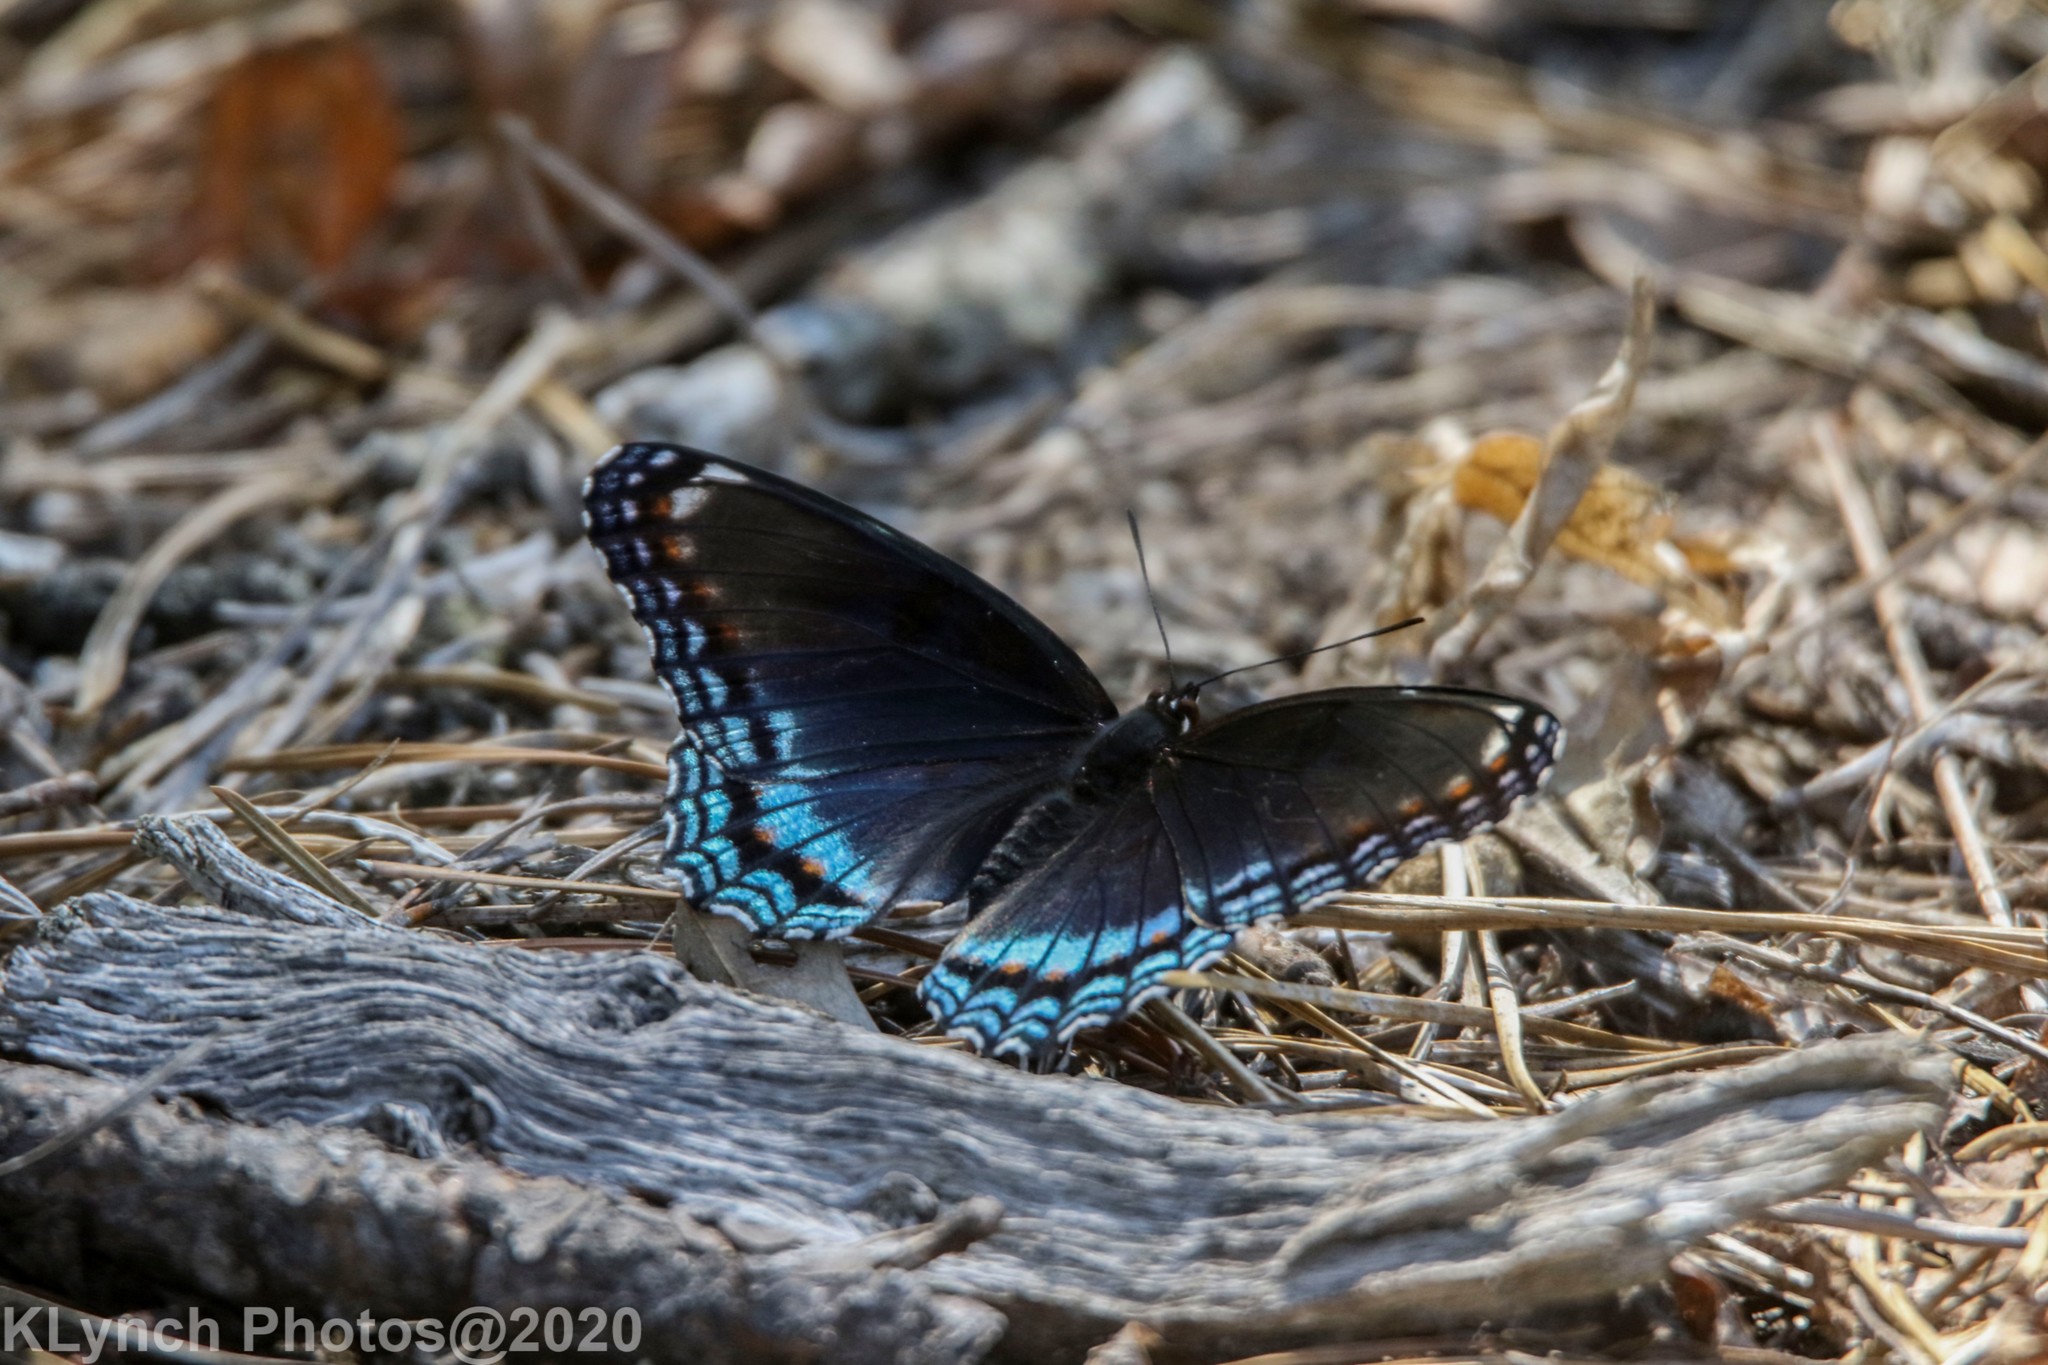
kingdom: Animalia
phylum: Arthropoda
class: Insecta
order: Lepidoptera
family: Nymphalidae
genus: Limenitis
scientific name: Limenitis astyanax
